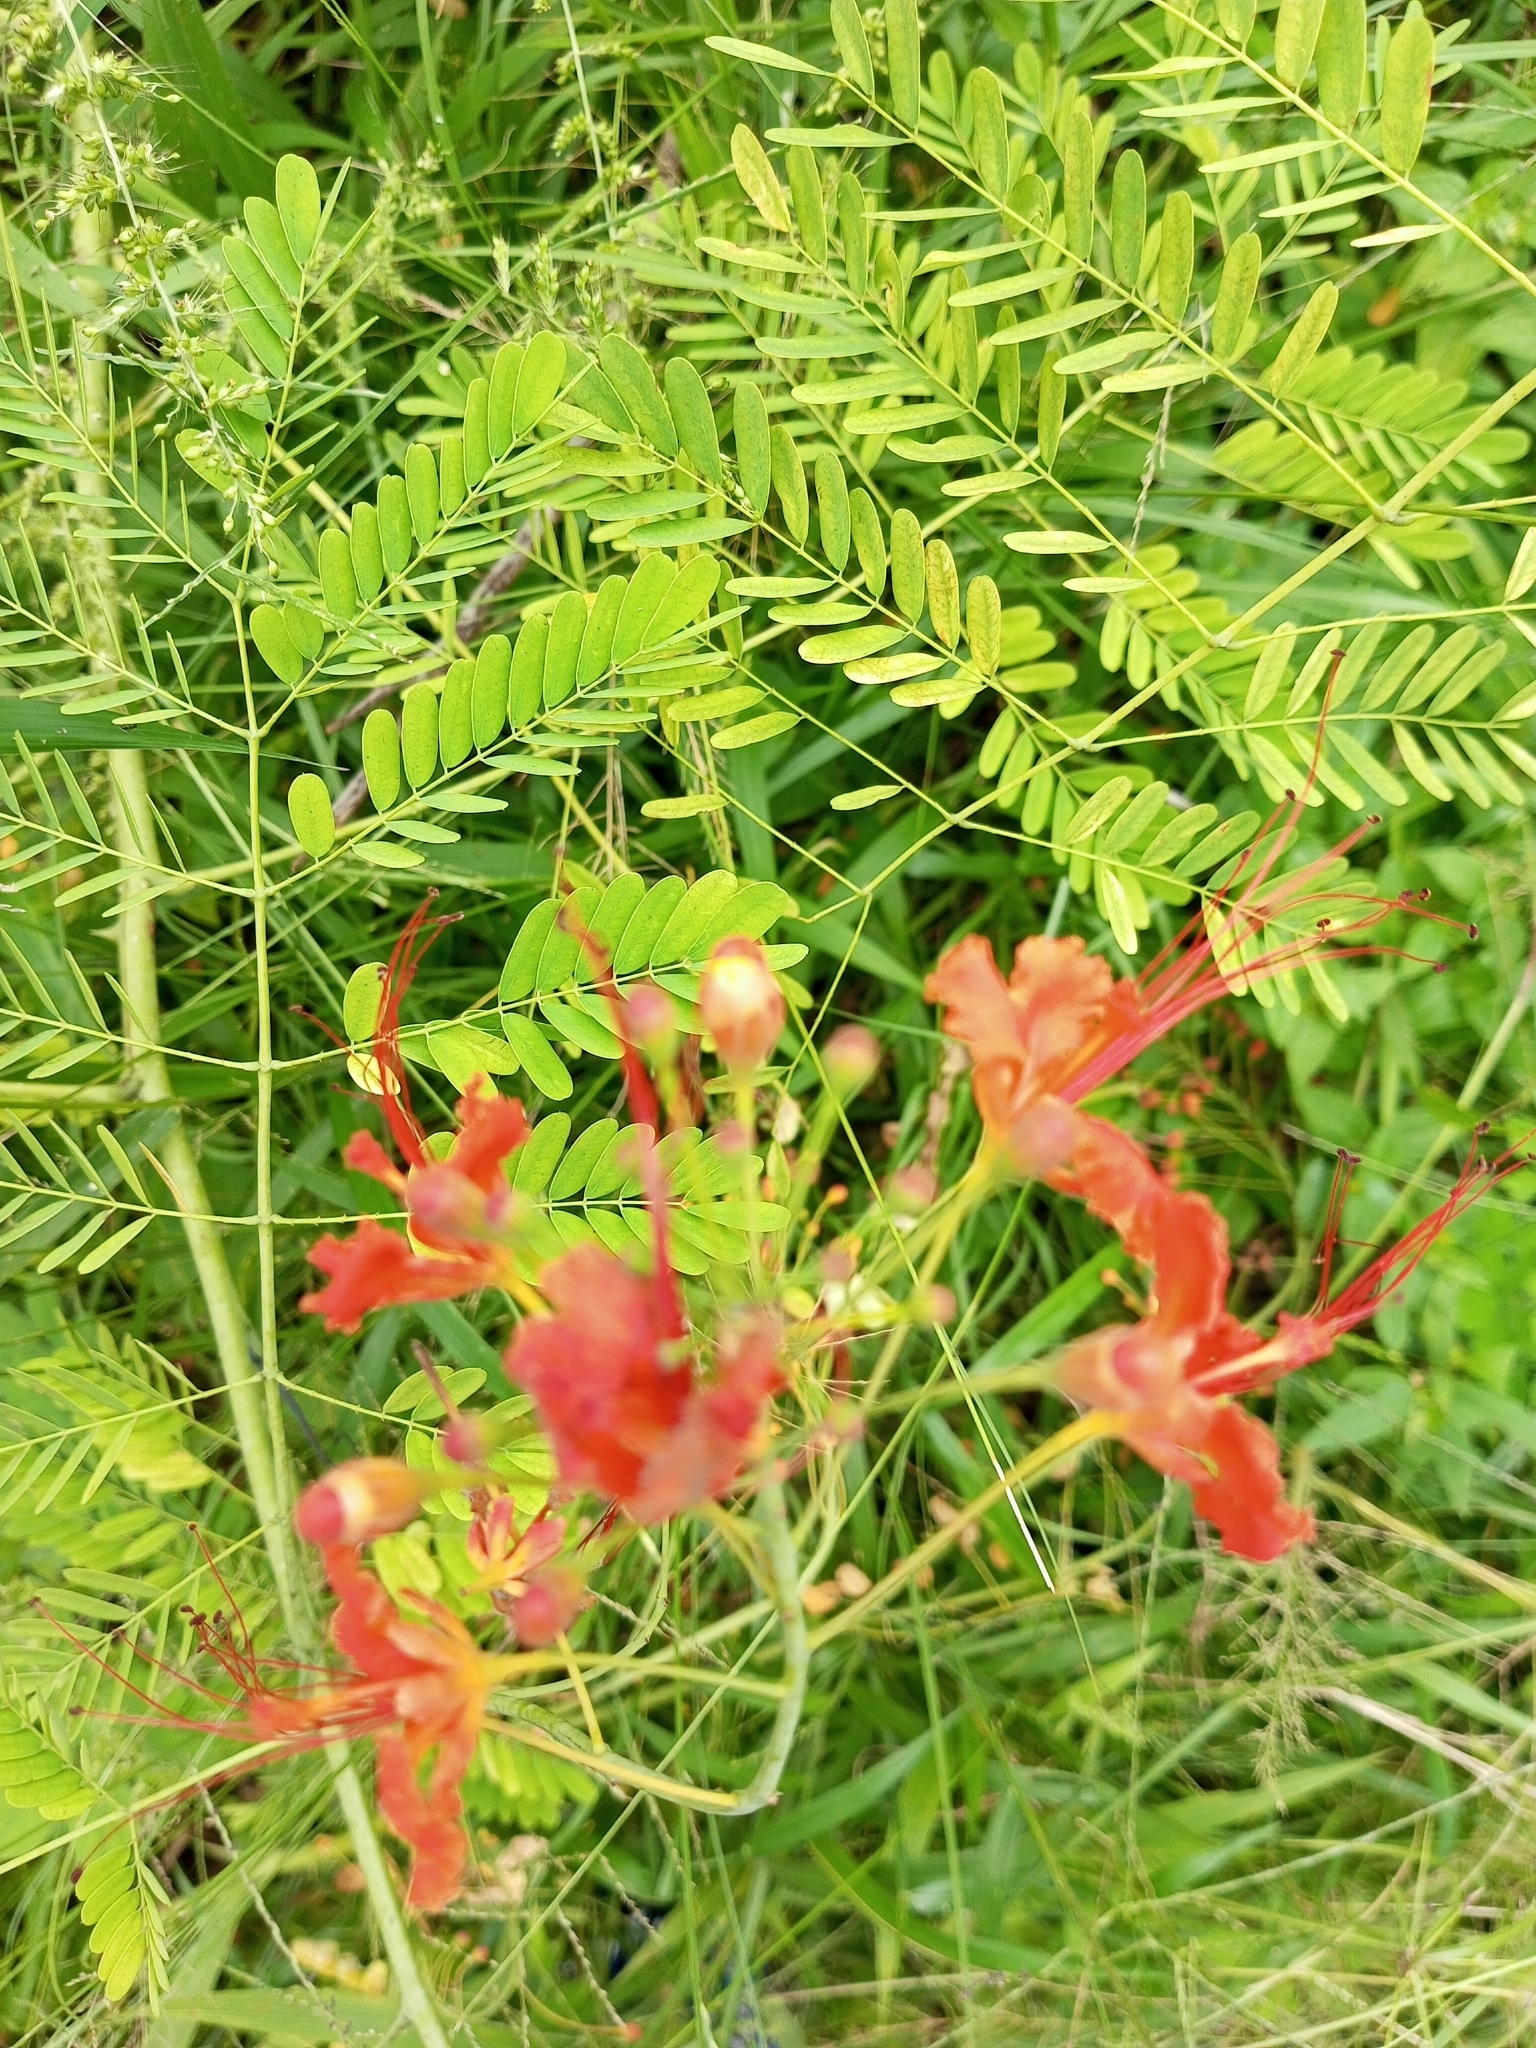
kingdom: Plantae
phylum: Tracheophyta
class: Magnoliopsida
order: Fabales
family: Fabaceae
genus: Caesalpinia
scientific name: Caesalpinia pulcherrima
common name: Pride-of-barbados
